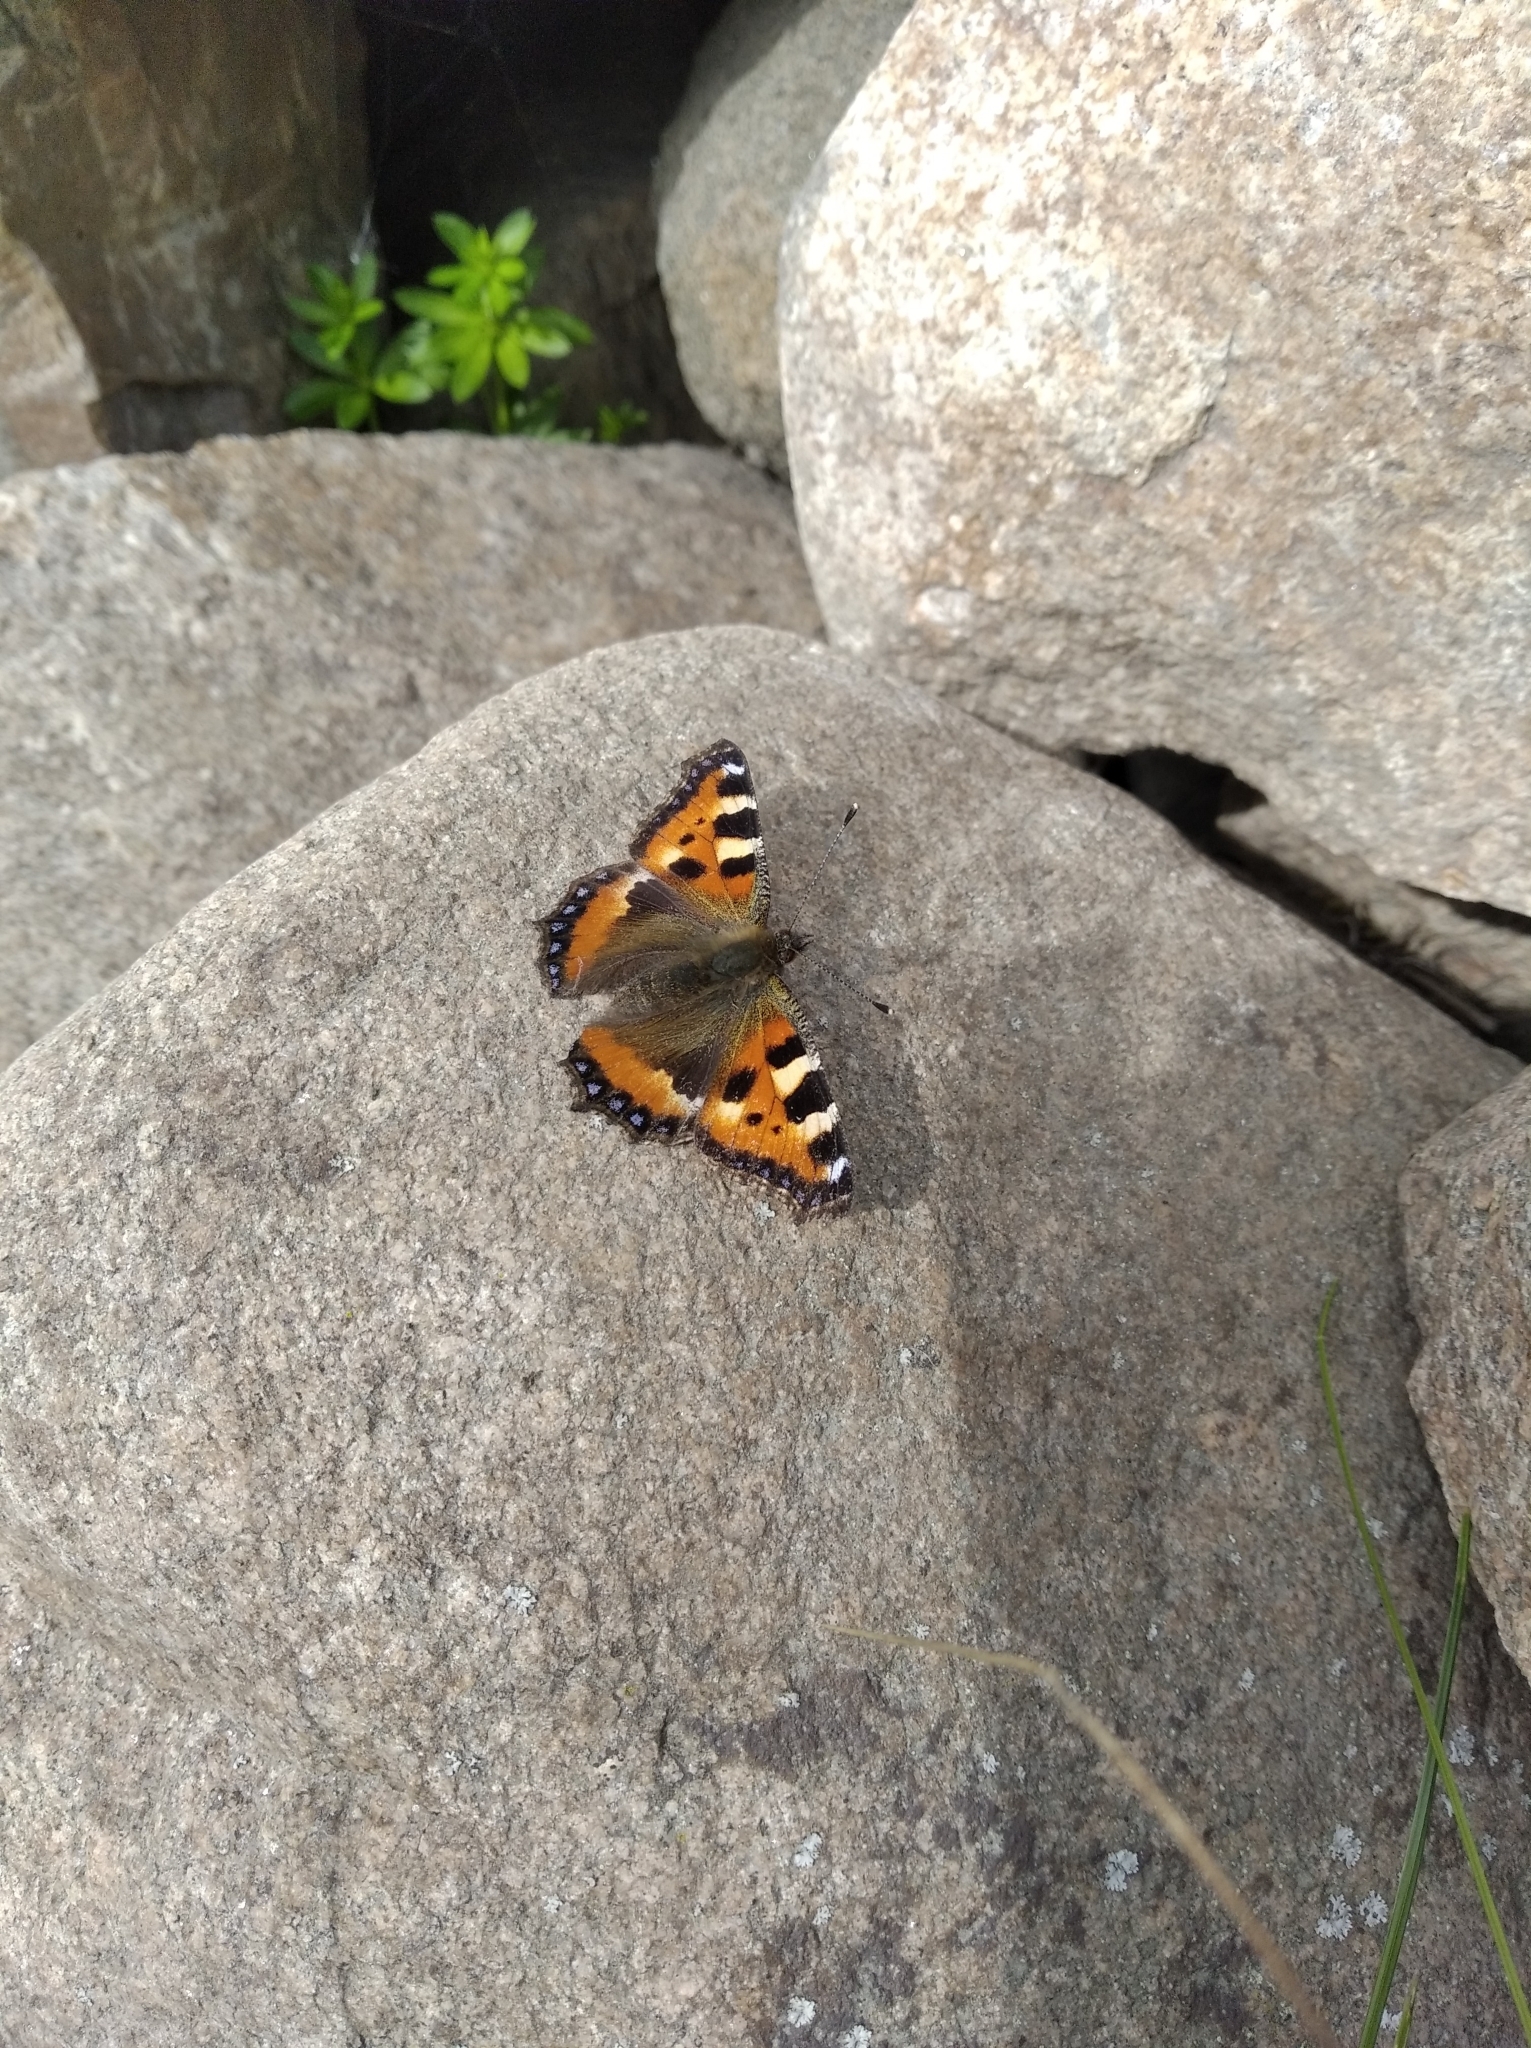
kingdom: Animalia
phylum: Arthropoda
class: Insecta
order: Lepidoptera
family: Nymphalidae
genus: Aglais
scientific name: Aglais urticae
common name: Small tortoiseshell
